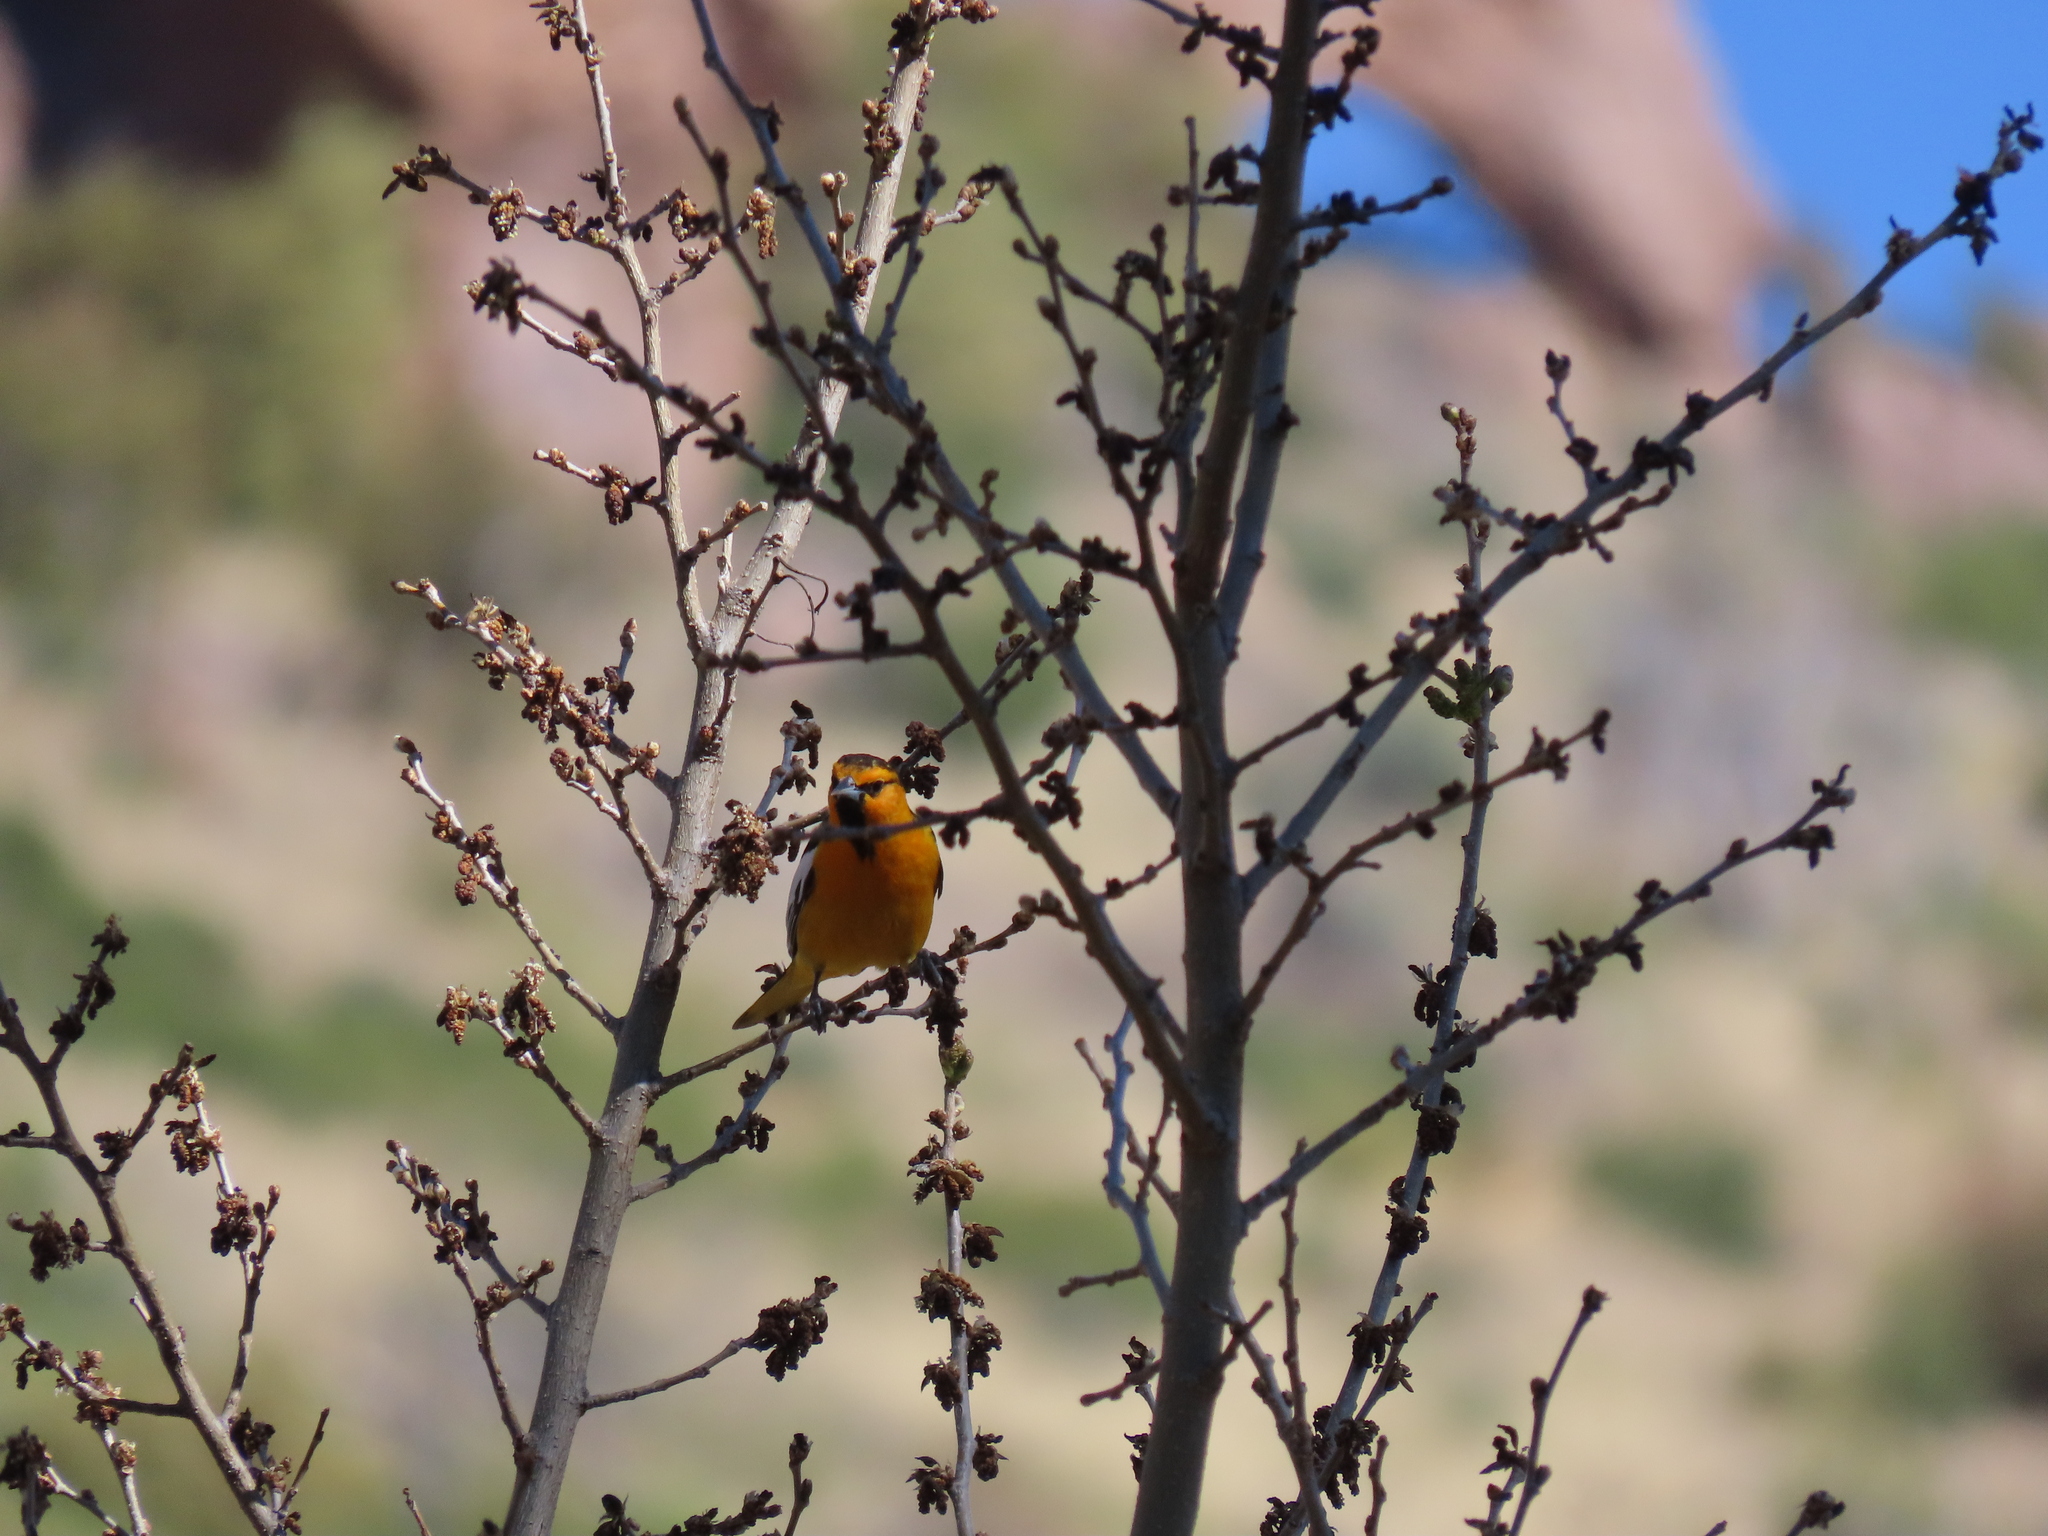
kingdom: Animalia
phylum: Chordata
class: Aves
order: Passeriformes
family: Icteridae
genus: Icterus
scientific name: Icterus bullockii
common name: Bullock's oriole
